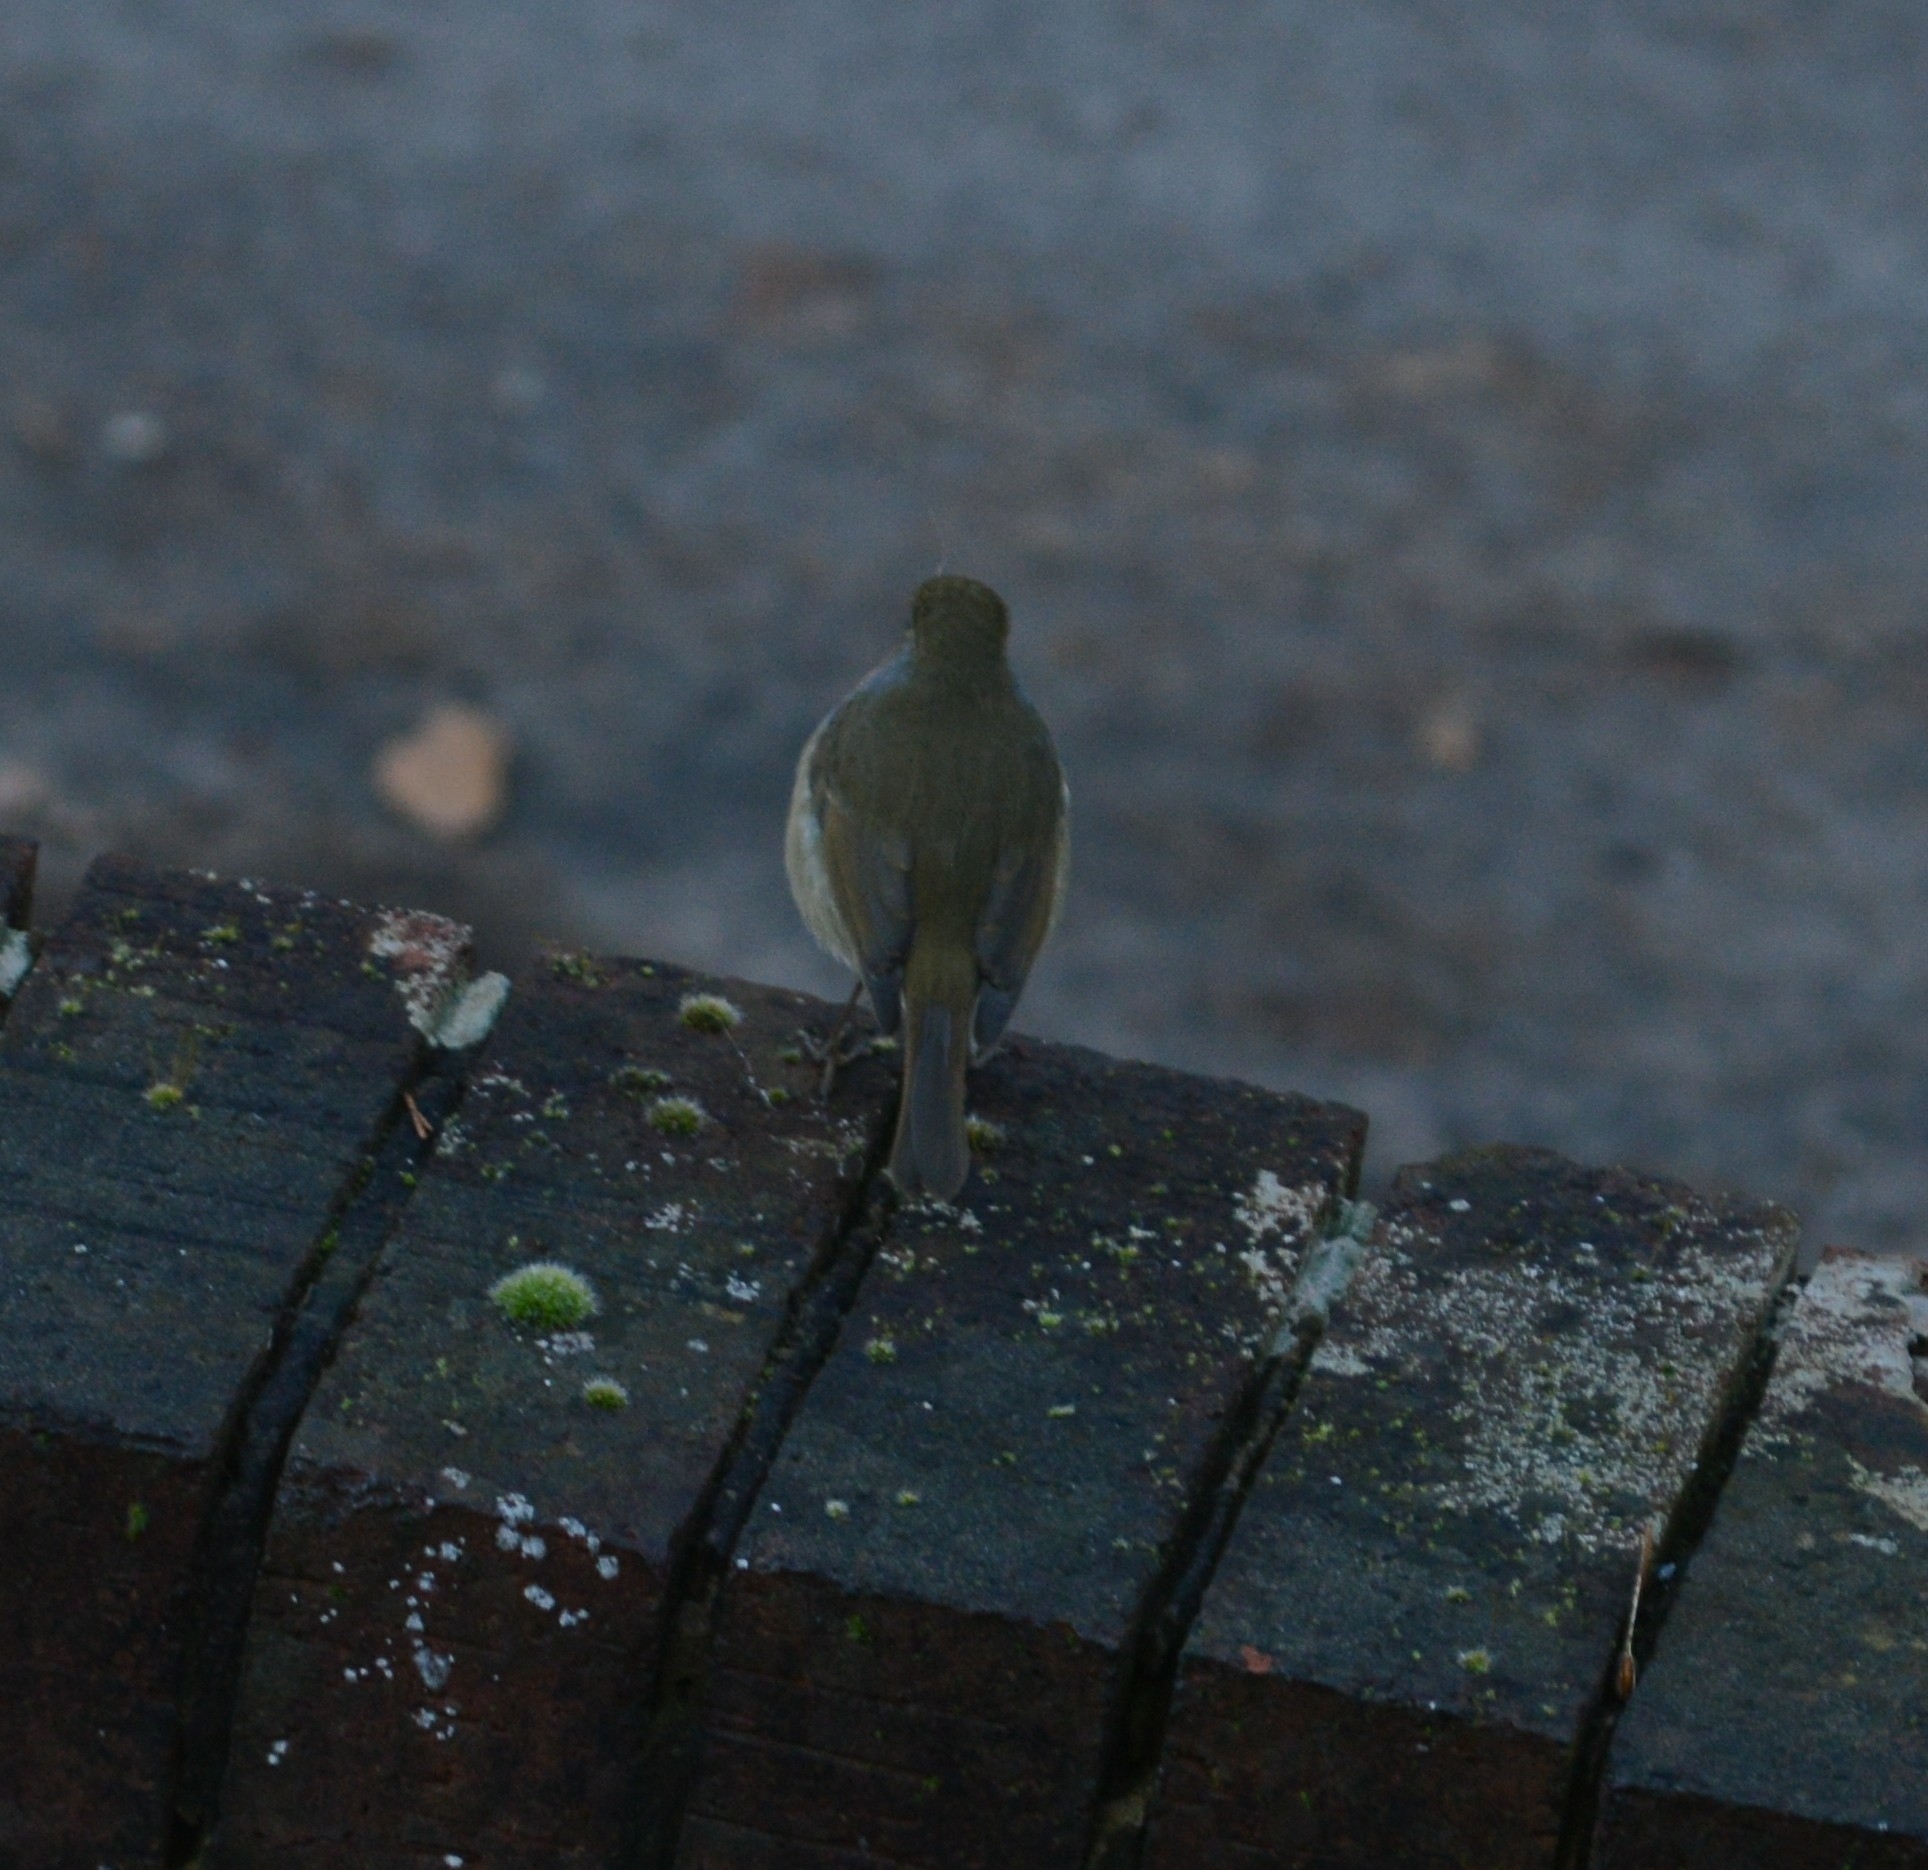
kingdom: Animalia
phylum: Chordata
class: Aves
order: Passeriformes
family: Muscicapidae
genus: Erithacus
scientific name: Erithacus rubecula
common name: European robin
